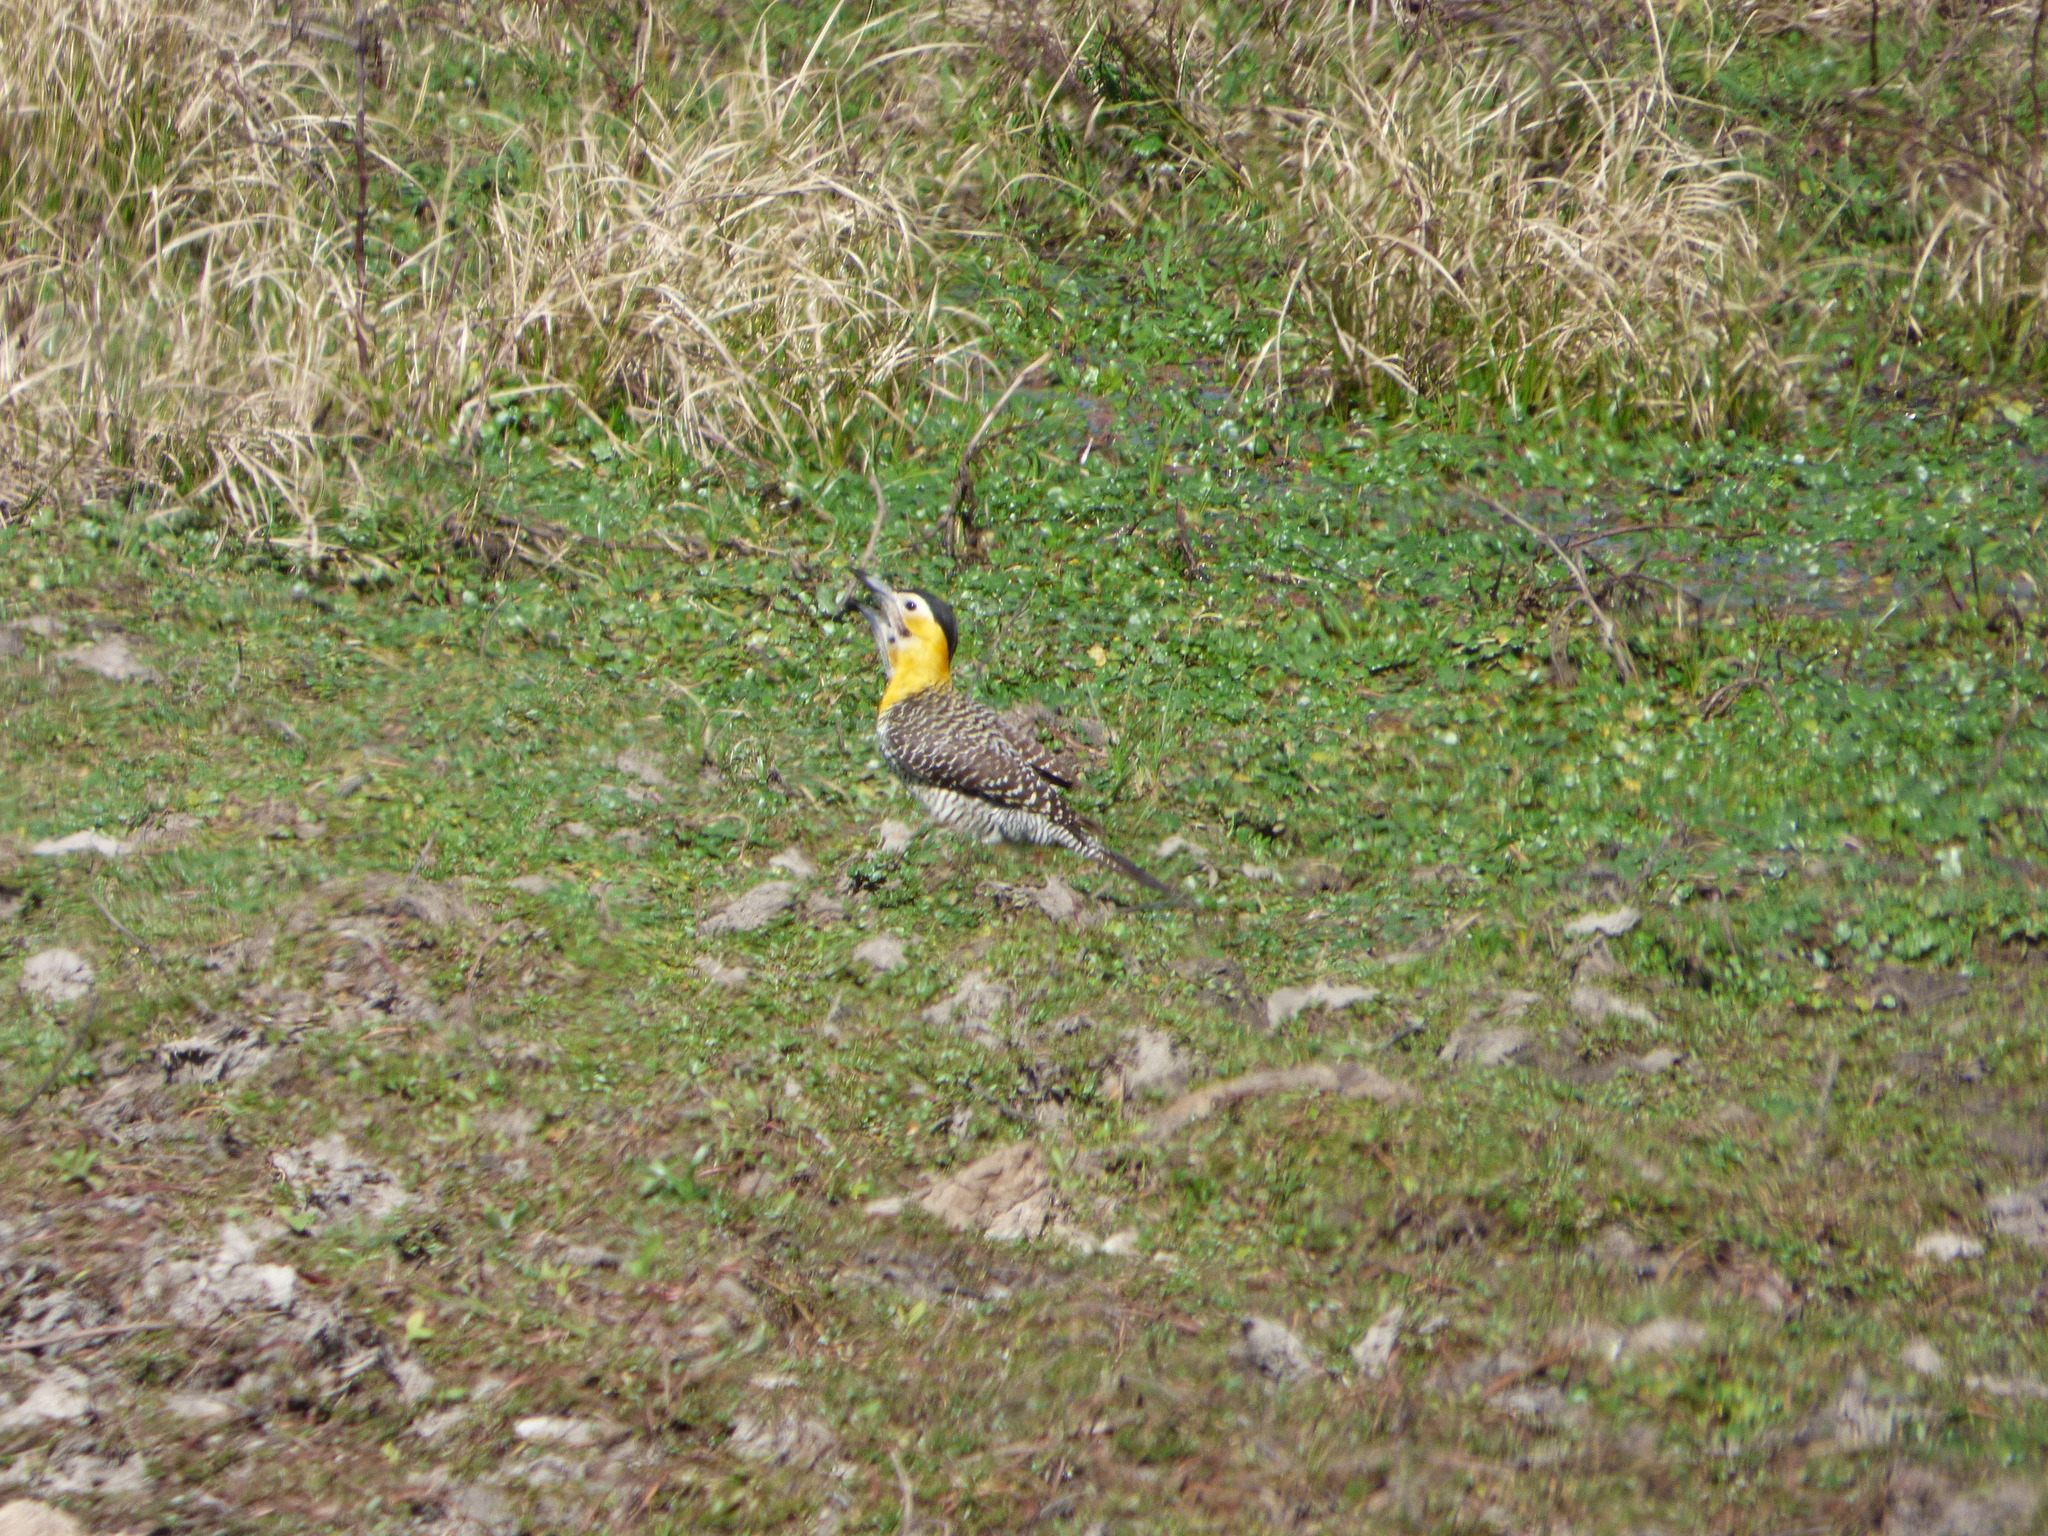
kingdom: Animalia
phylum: Chordata
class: Aves
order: Piciformes
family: Picidae
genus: Colaptes
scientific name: Colaptes campestris
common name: Campo flicker
